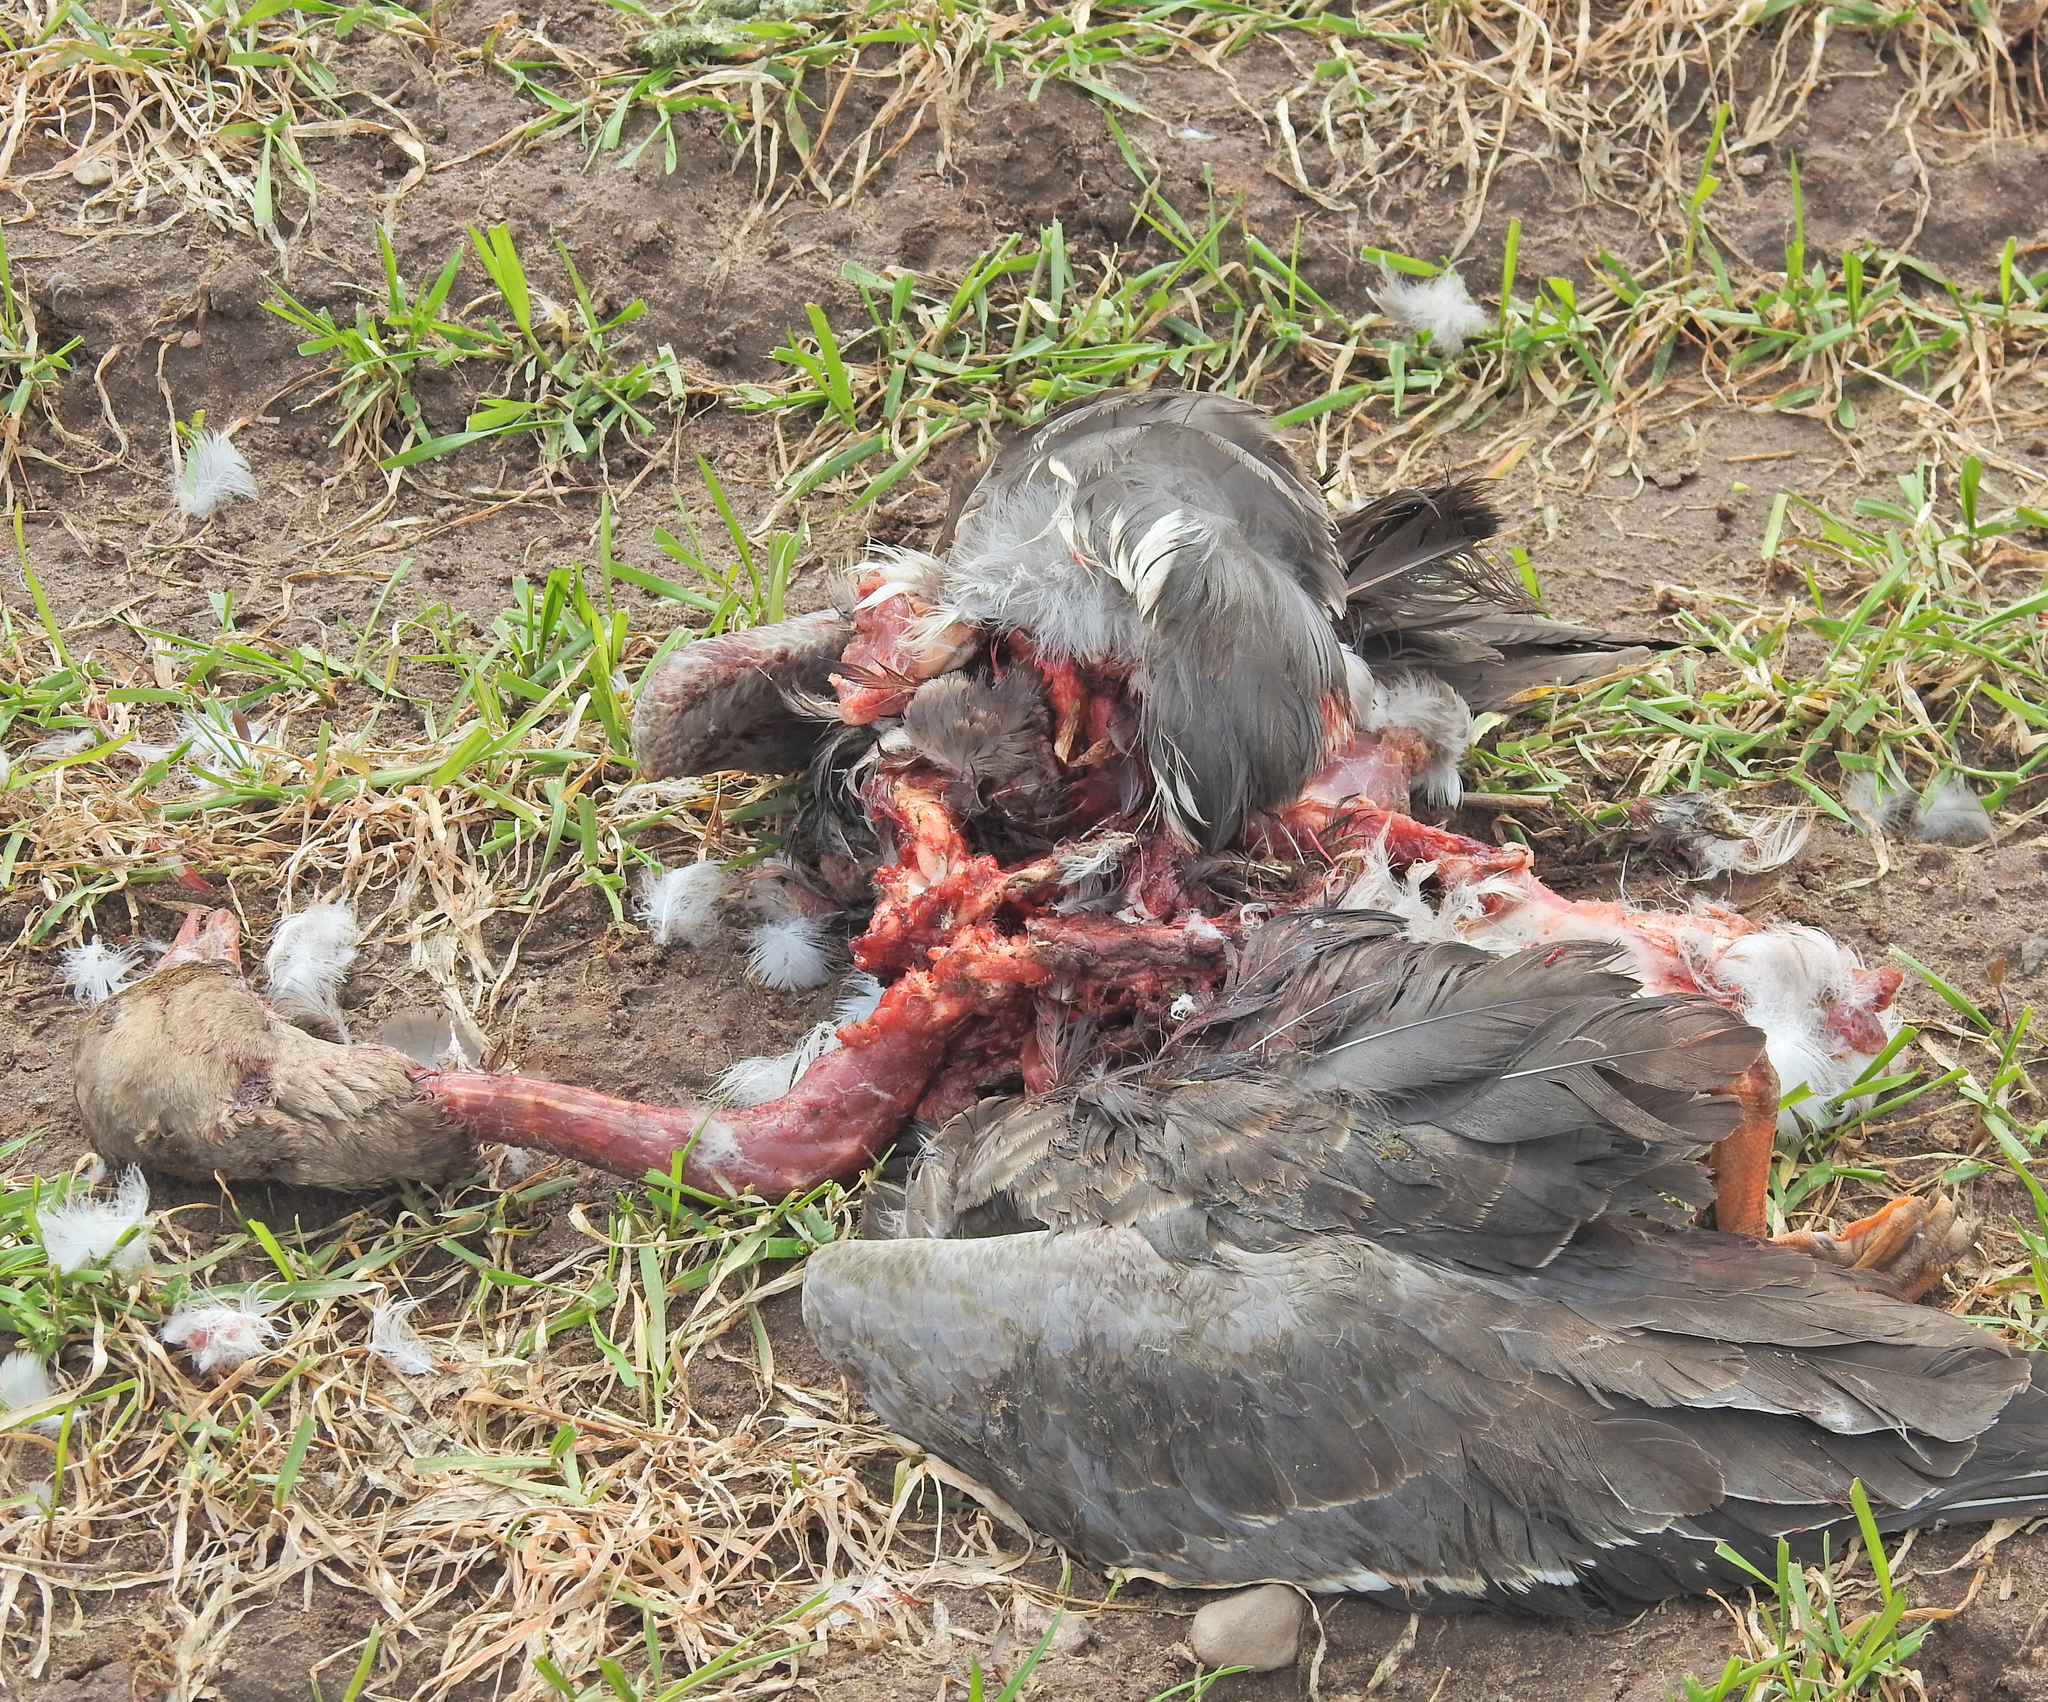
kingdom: Animalia
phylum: Chordata
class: Aves
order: Anseriformes
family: Anatidae
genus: Anser
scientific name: Anser albifrons
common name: Greater white-fronted goose
